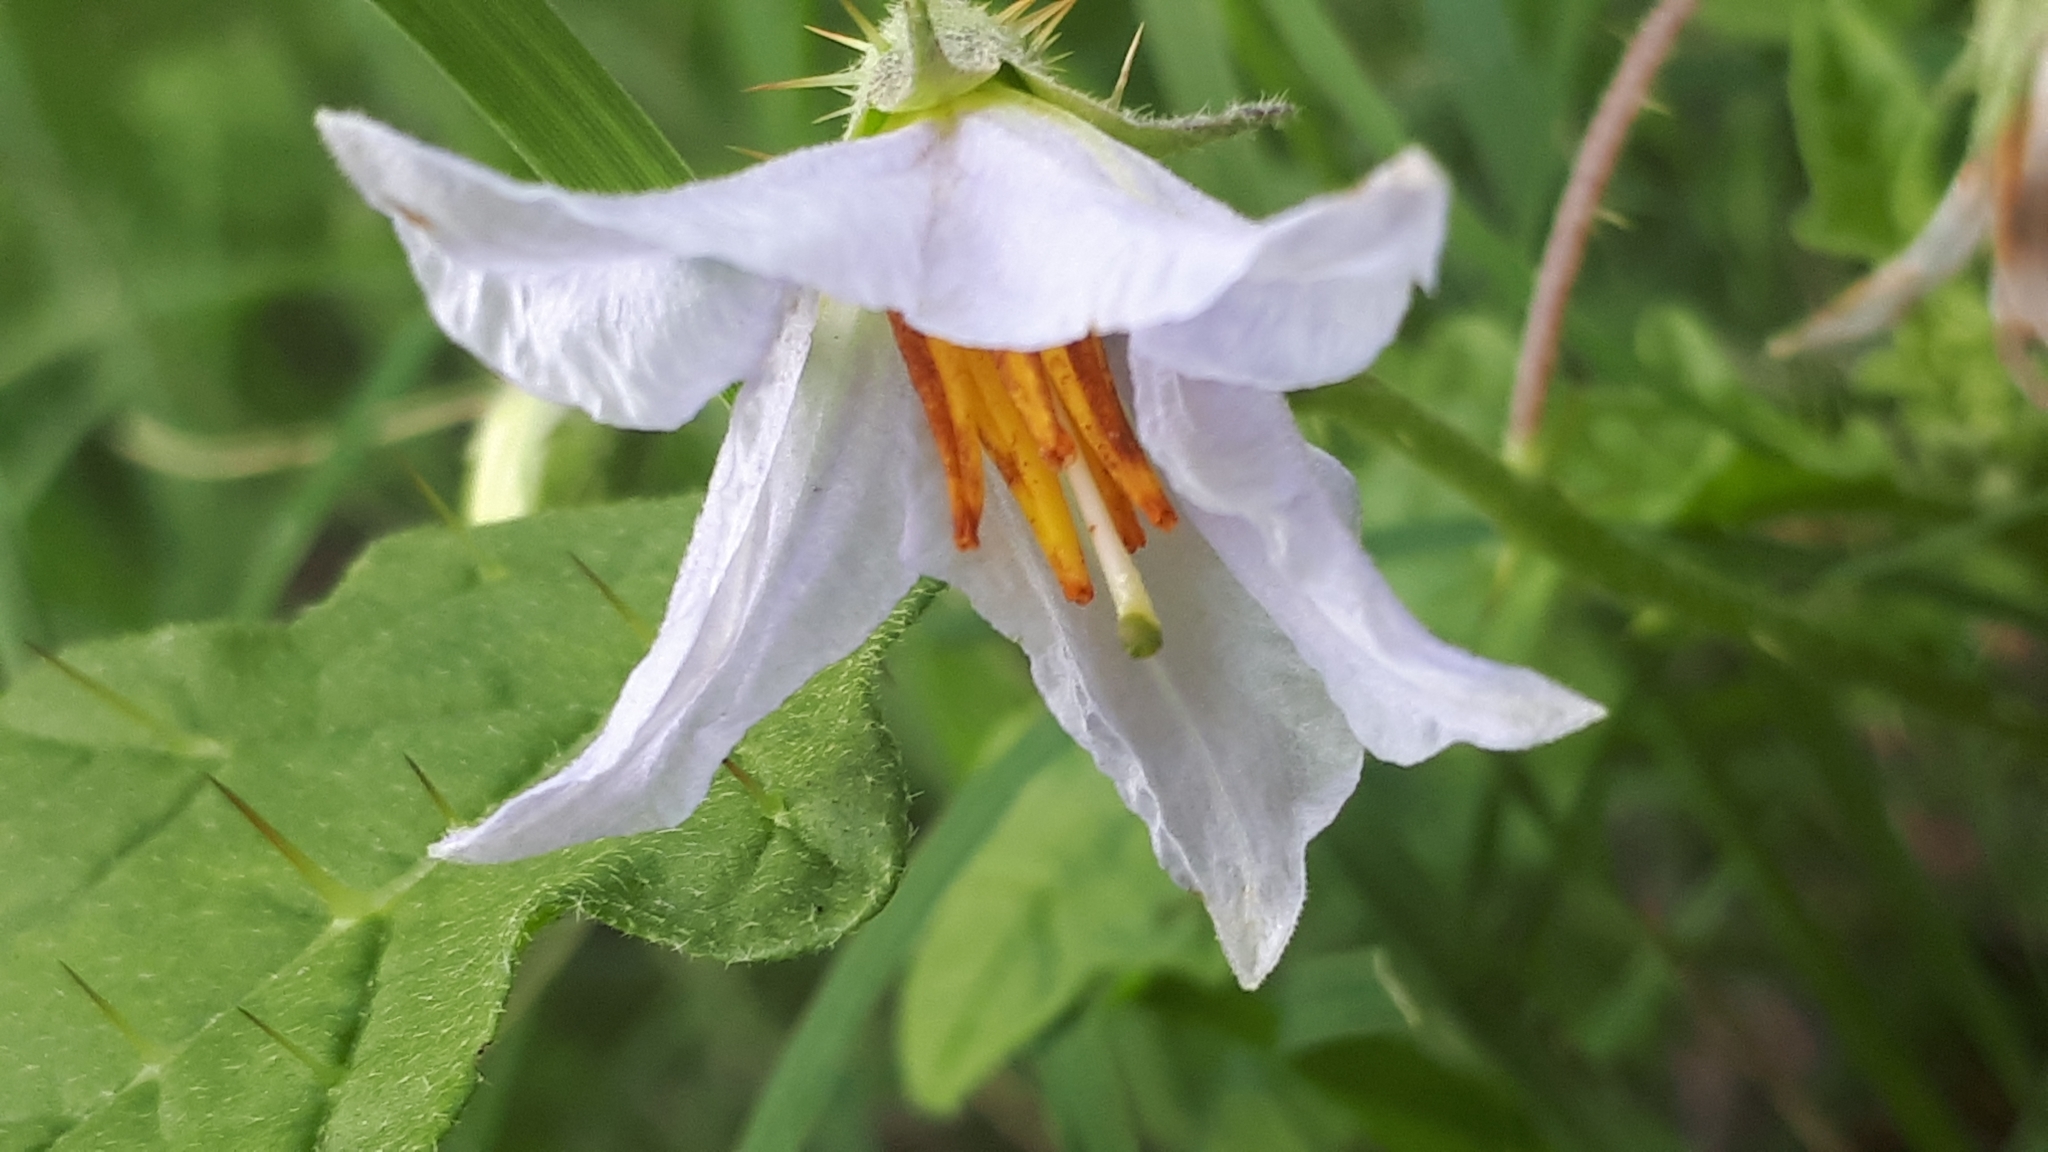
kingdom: Plantae
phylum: Tracheophyta
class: Magnoliopsida
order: Solanales
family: Solanaceae
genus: Solanum
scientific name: Solanum juvenale
